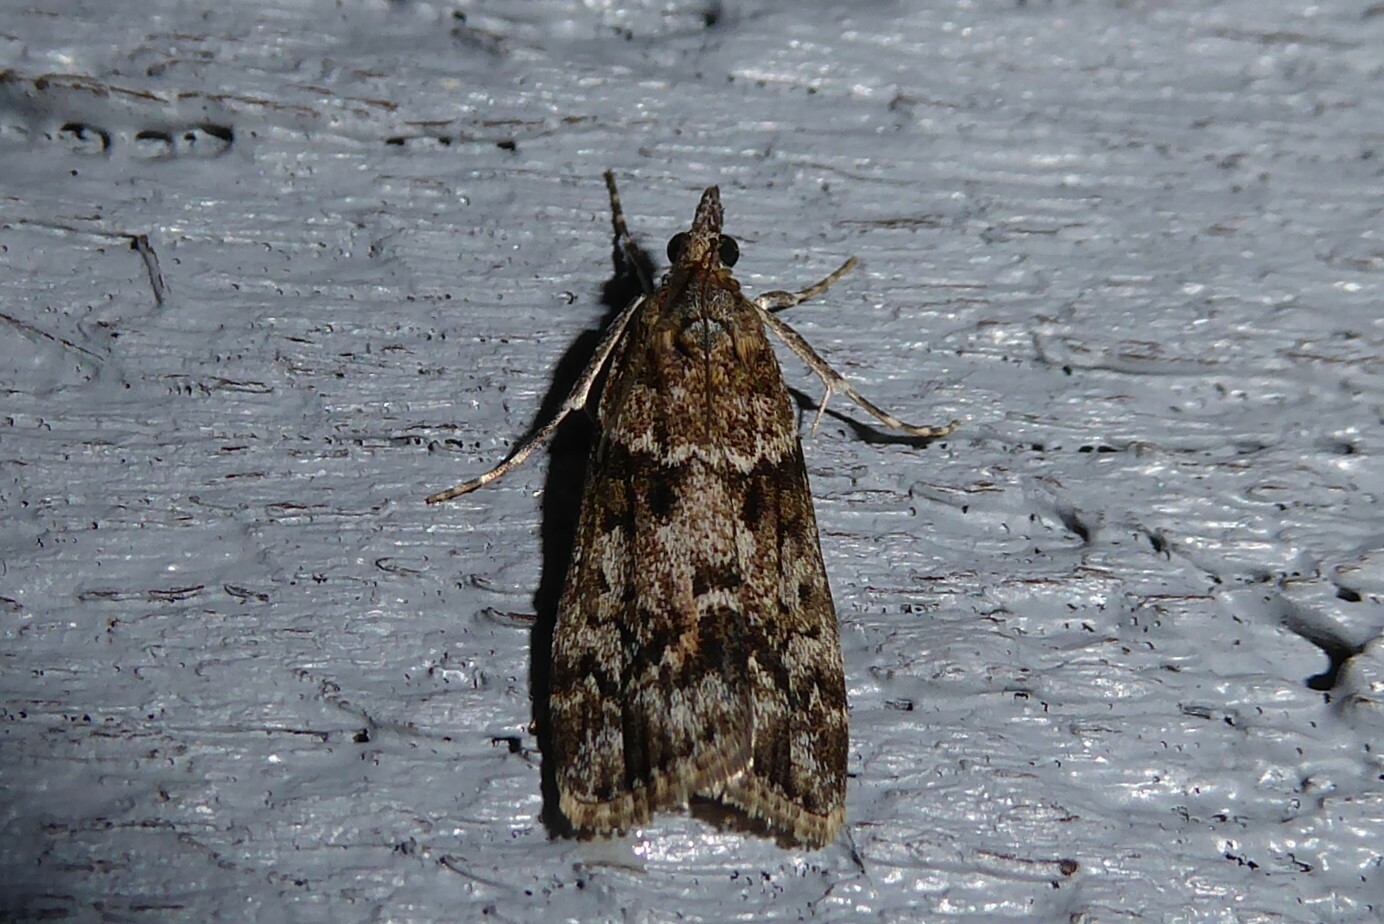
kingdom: Animalia
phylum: Arthropoda
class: Insecta
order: Lepidoptera
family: Crambidae
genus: Eudonia
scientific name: Eudonia submarginalis
